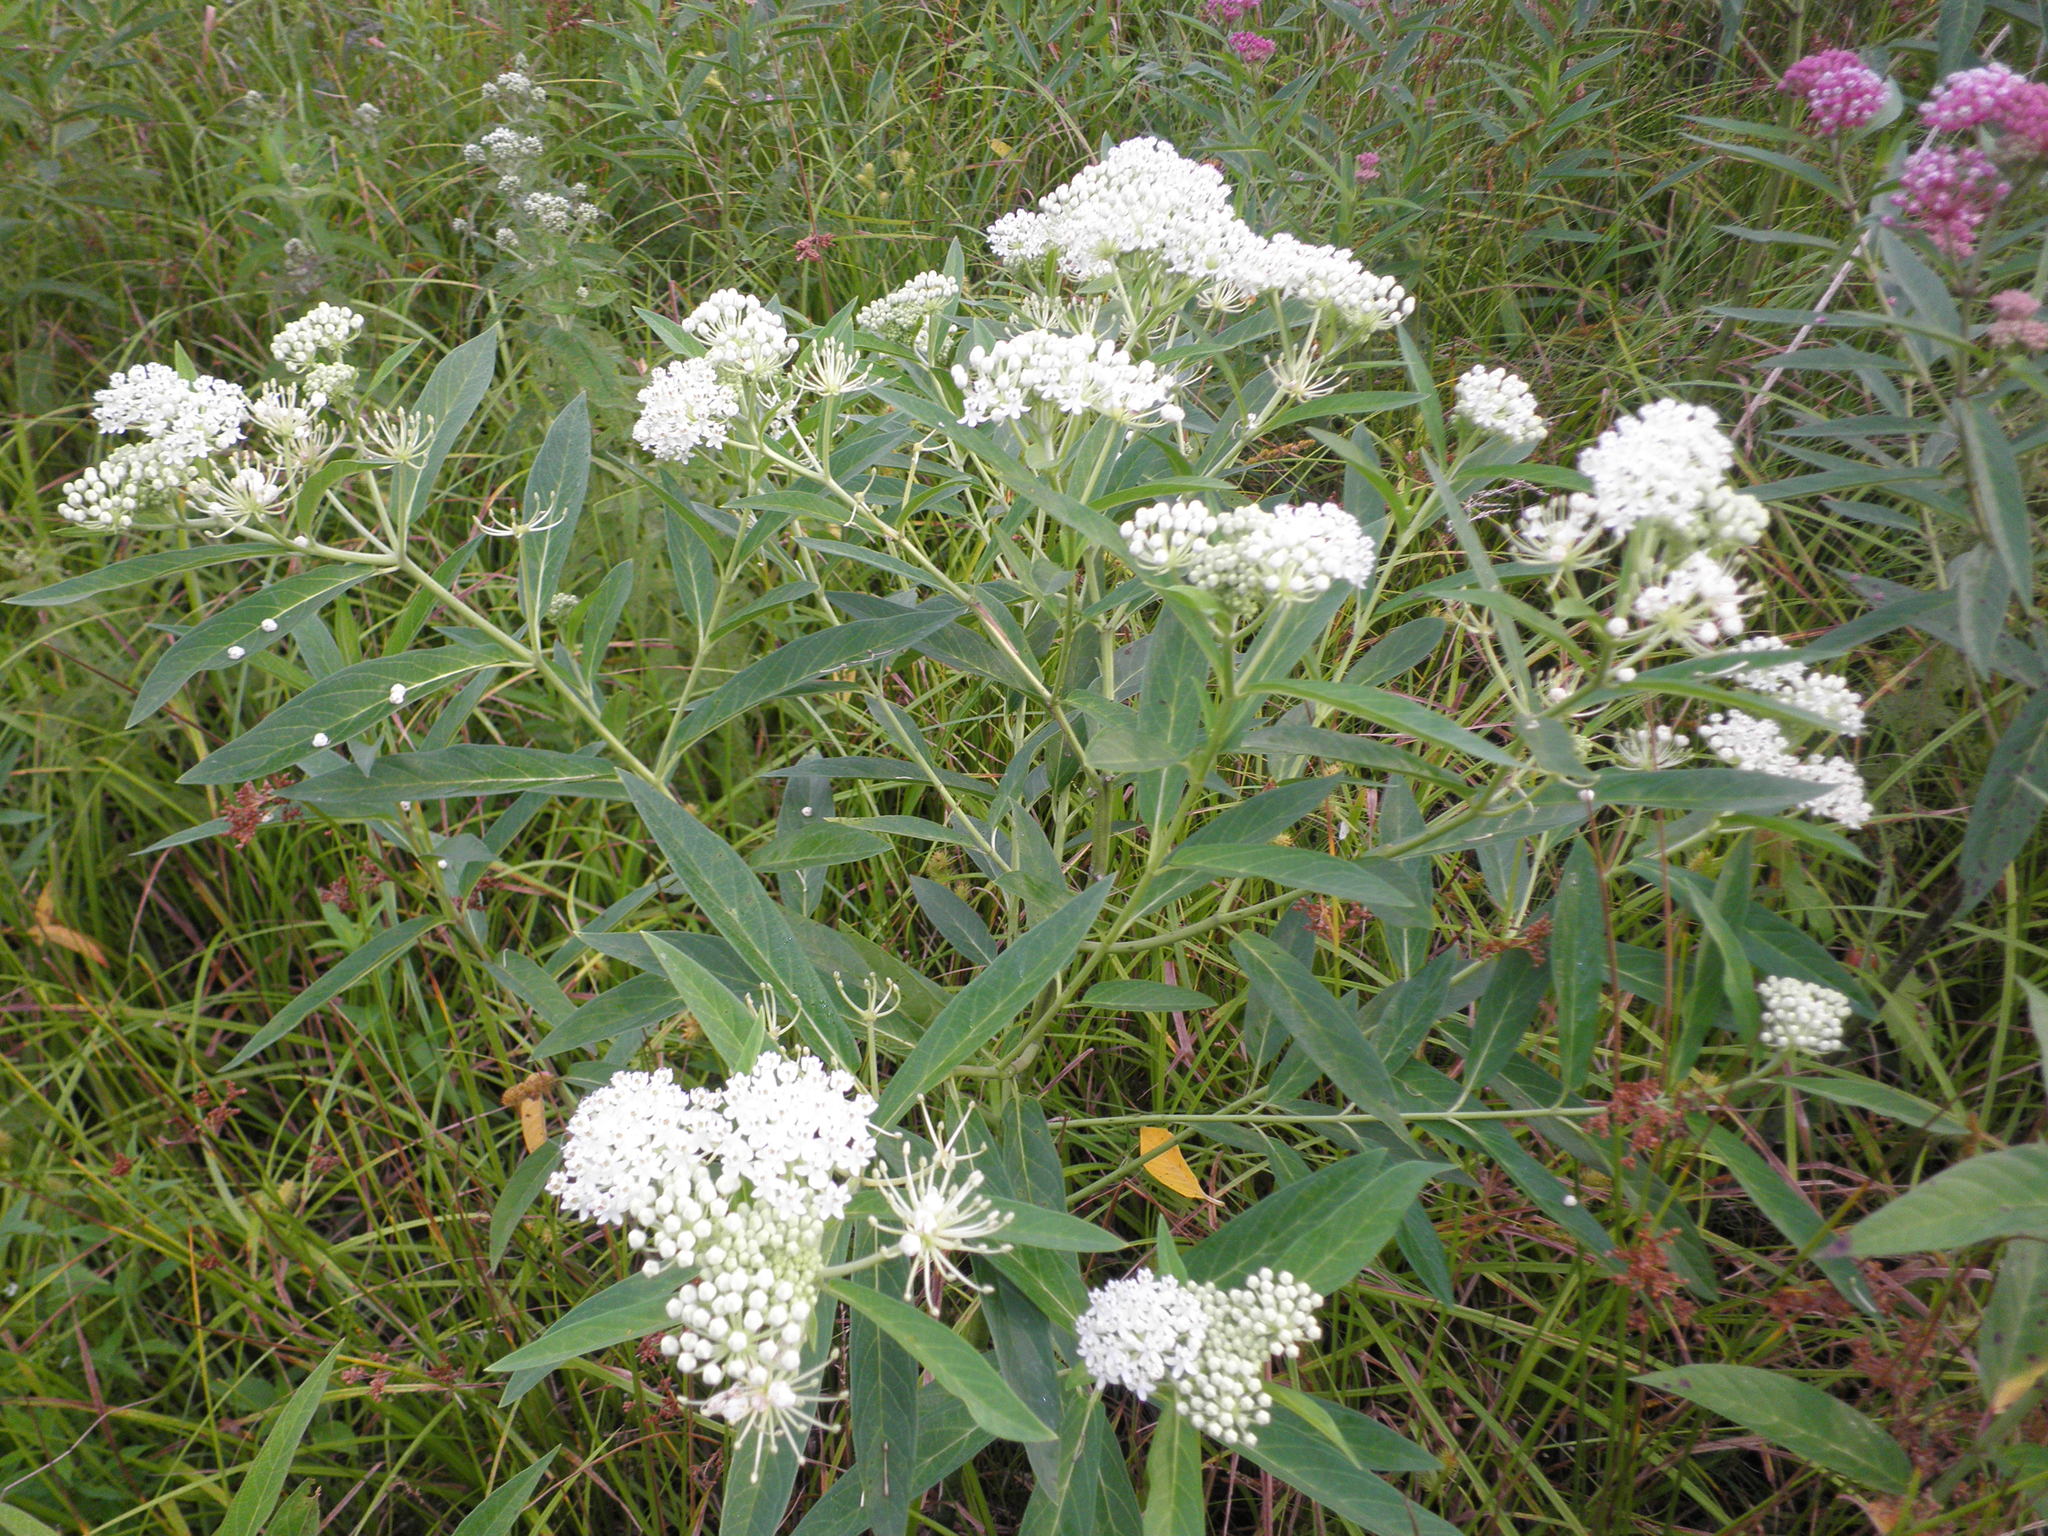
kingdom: Plantae
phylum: Tracheophyta
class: Magnoliopsida
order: Gentianales
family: Apocynaceae
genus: Asclepias
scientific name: Asclepias incarnata
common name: Swamp milkweed
